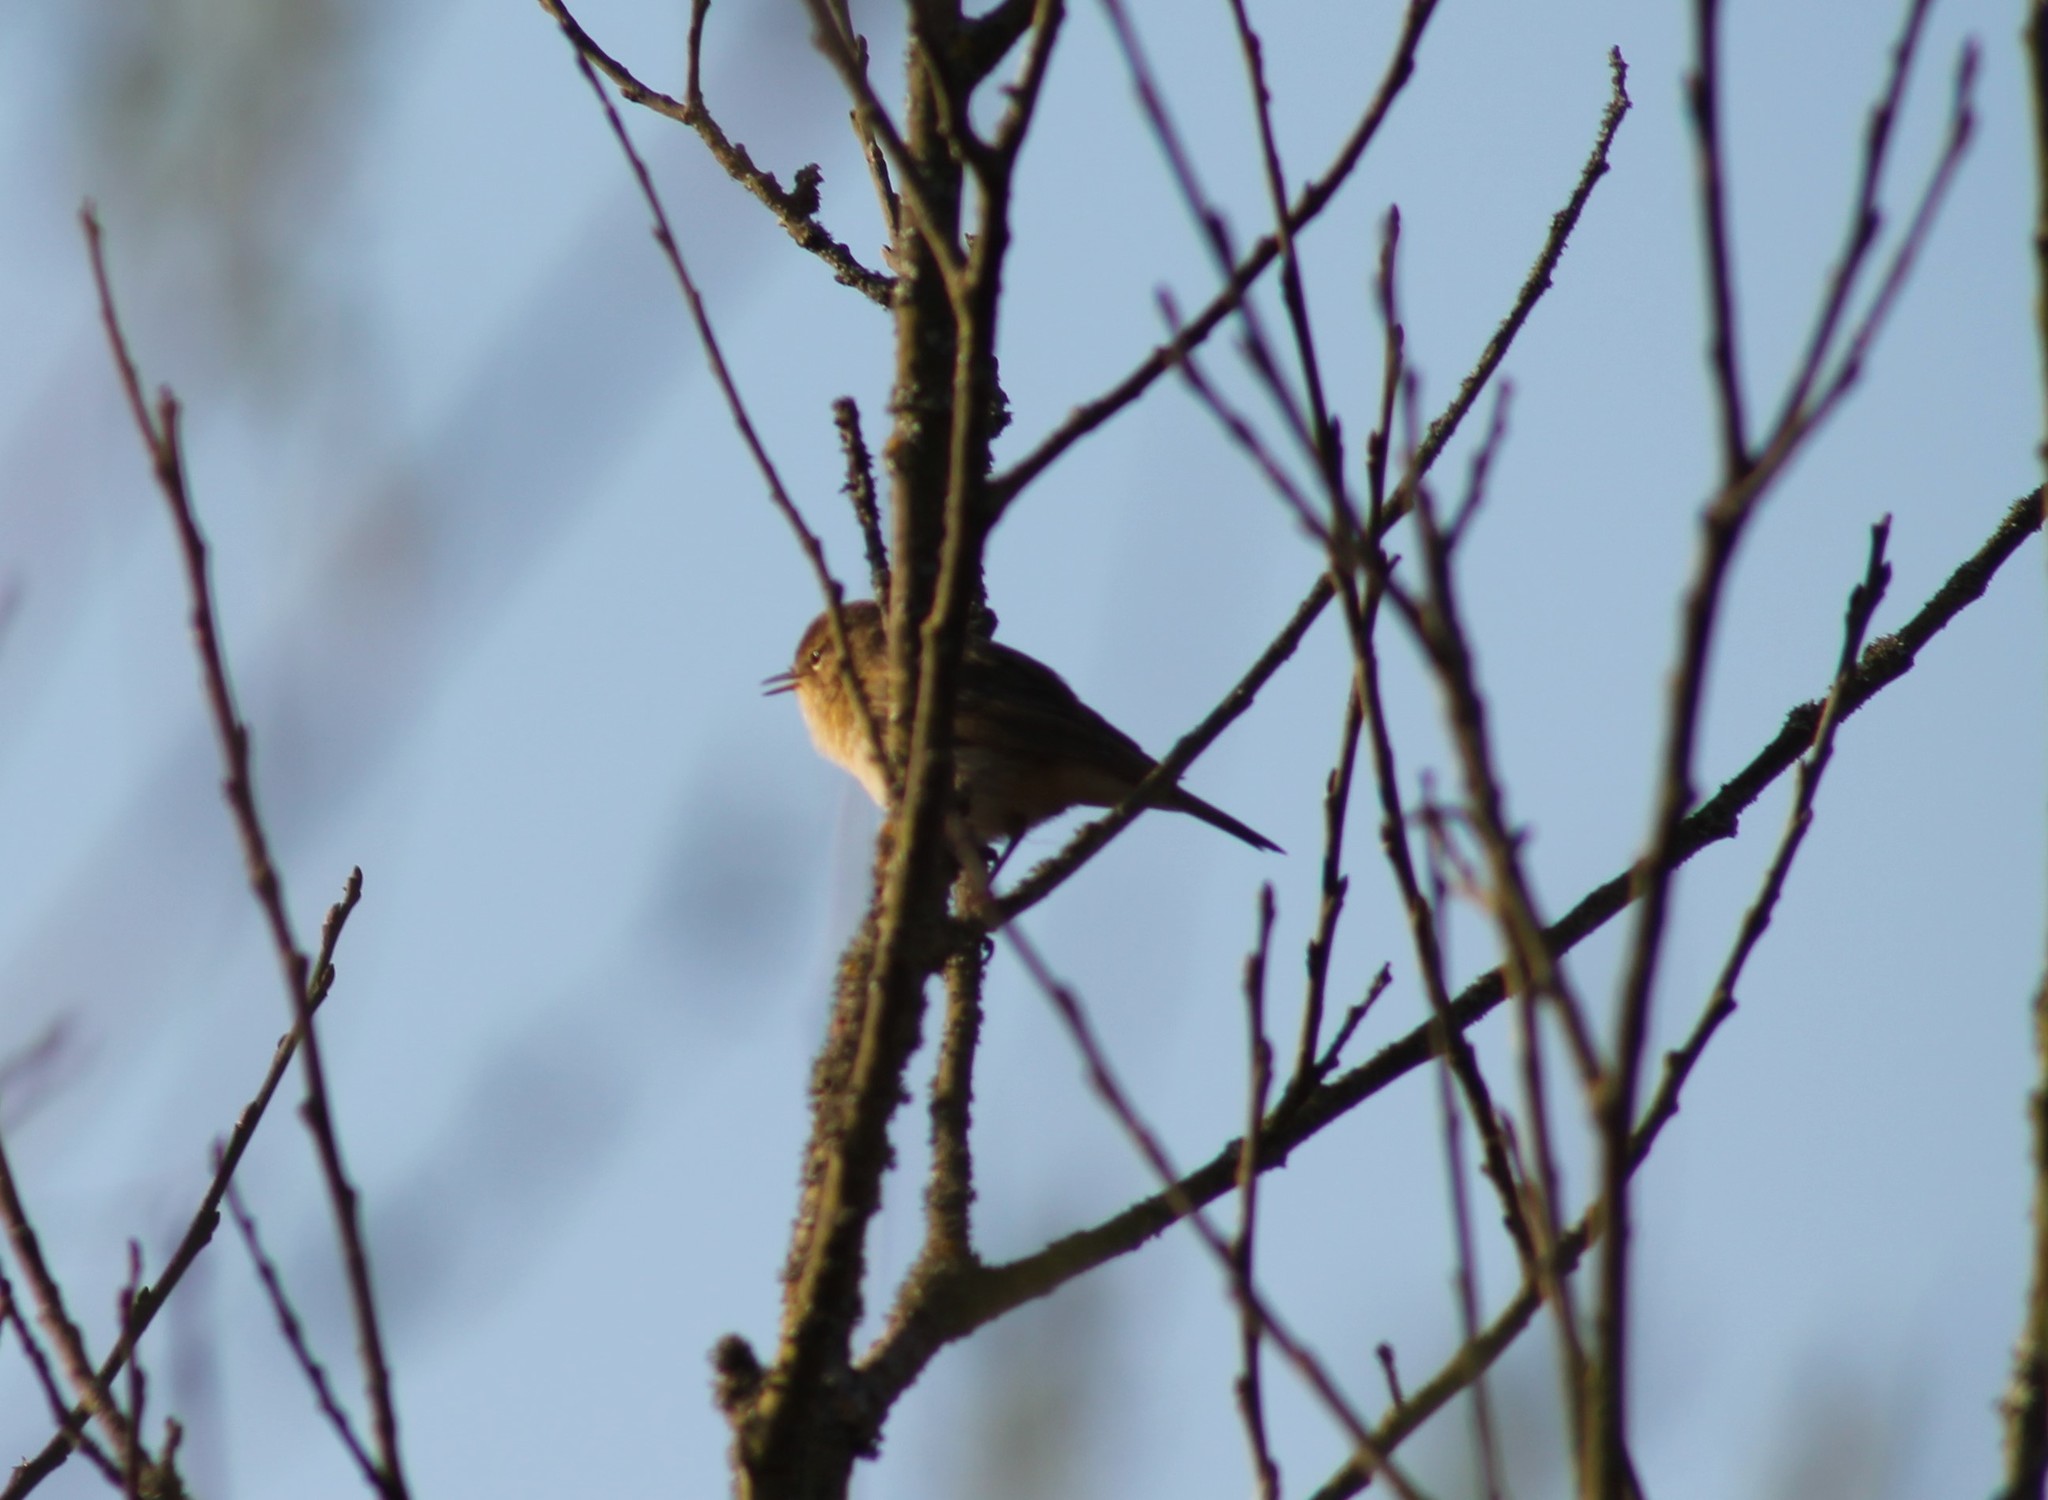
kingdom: Animalia
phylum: Chordata
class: Aves
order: Passeriformes
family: Phylloscopidae
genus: Phylloscopus
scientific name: Phylloscopus collybita
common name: Common chiffchaff
